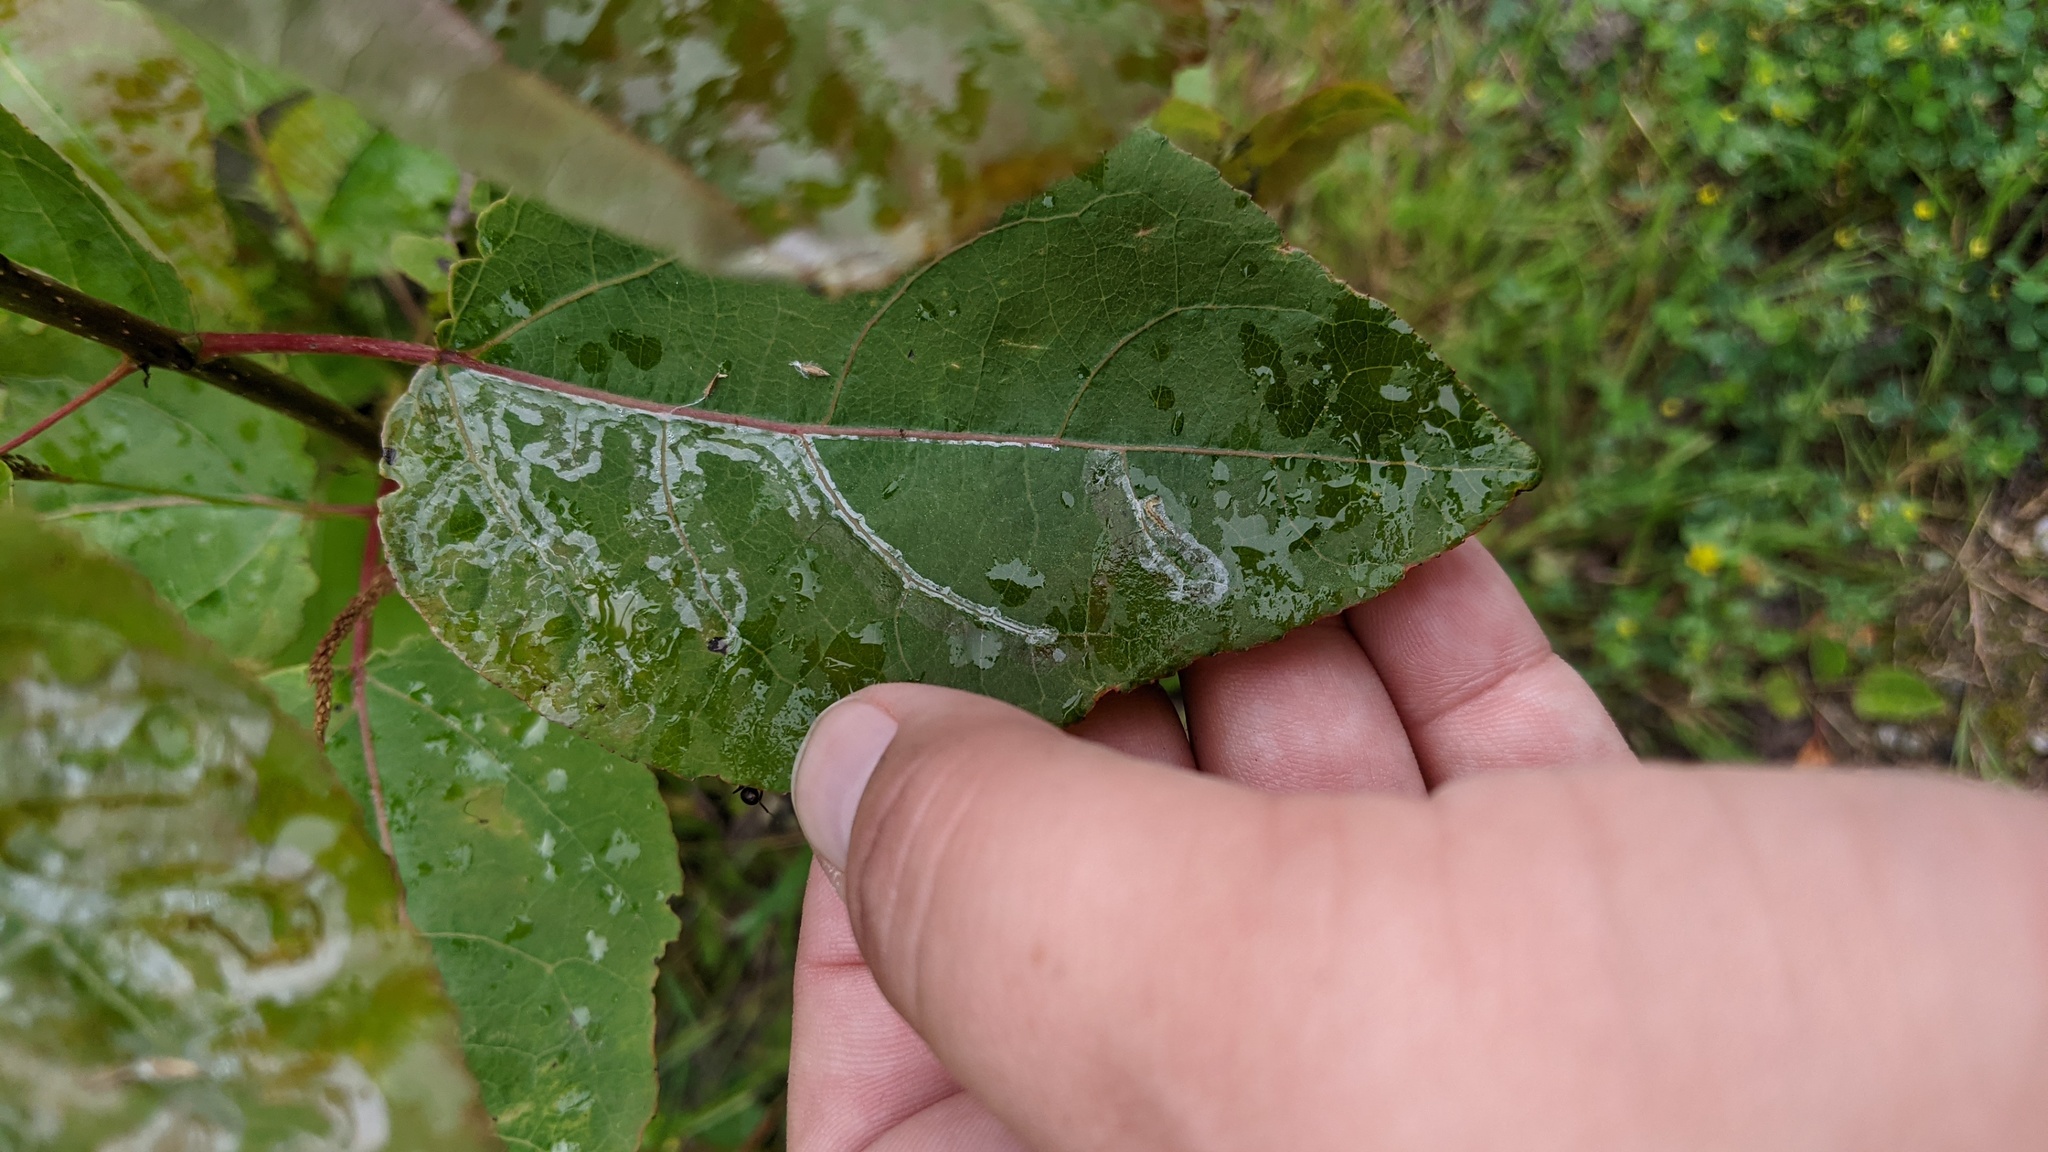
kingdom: Animalia
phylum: Arthropoda
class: Insecta
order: Lepidoptera
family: Gracillariidae
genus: Phyllocnistis
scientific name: Phyllocnistis populiella
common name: Aspen serpentine leafminer moth
